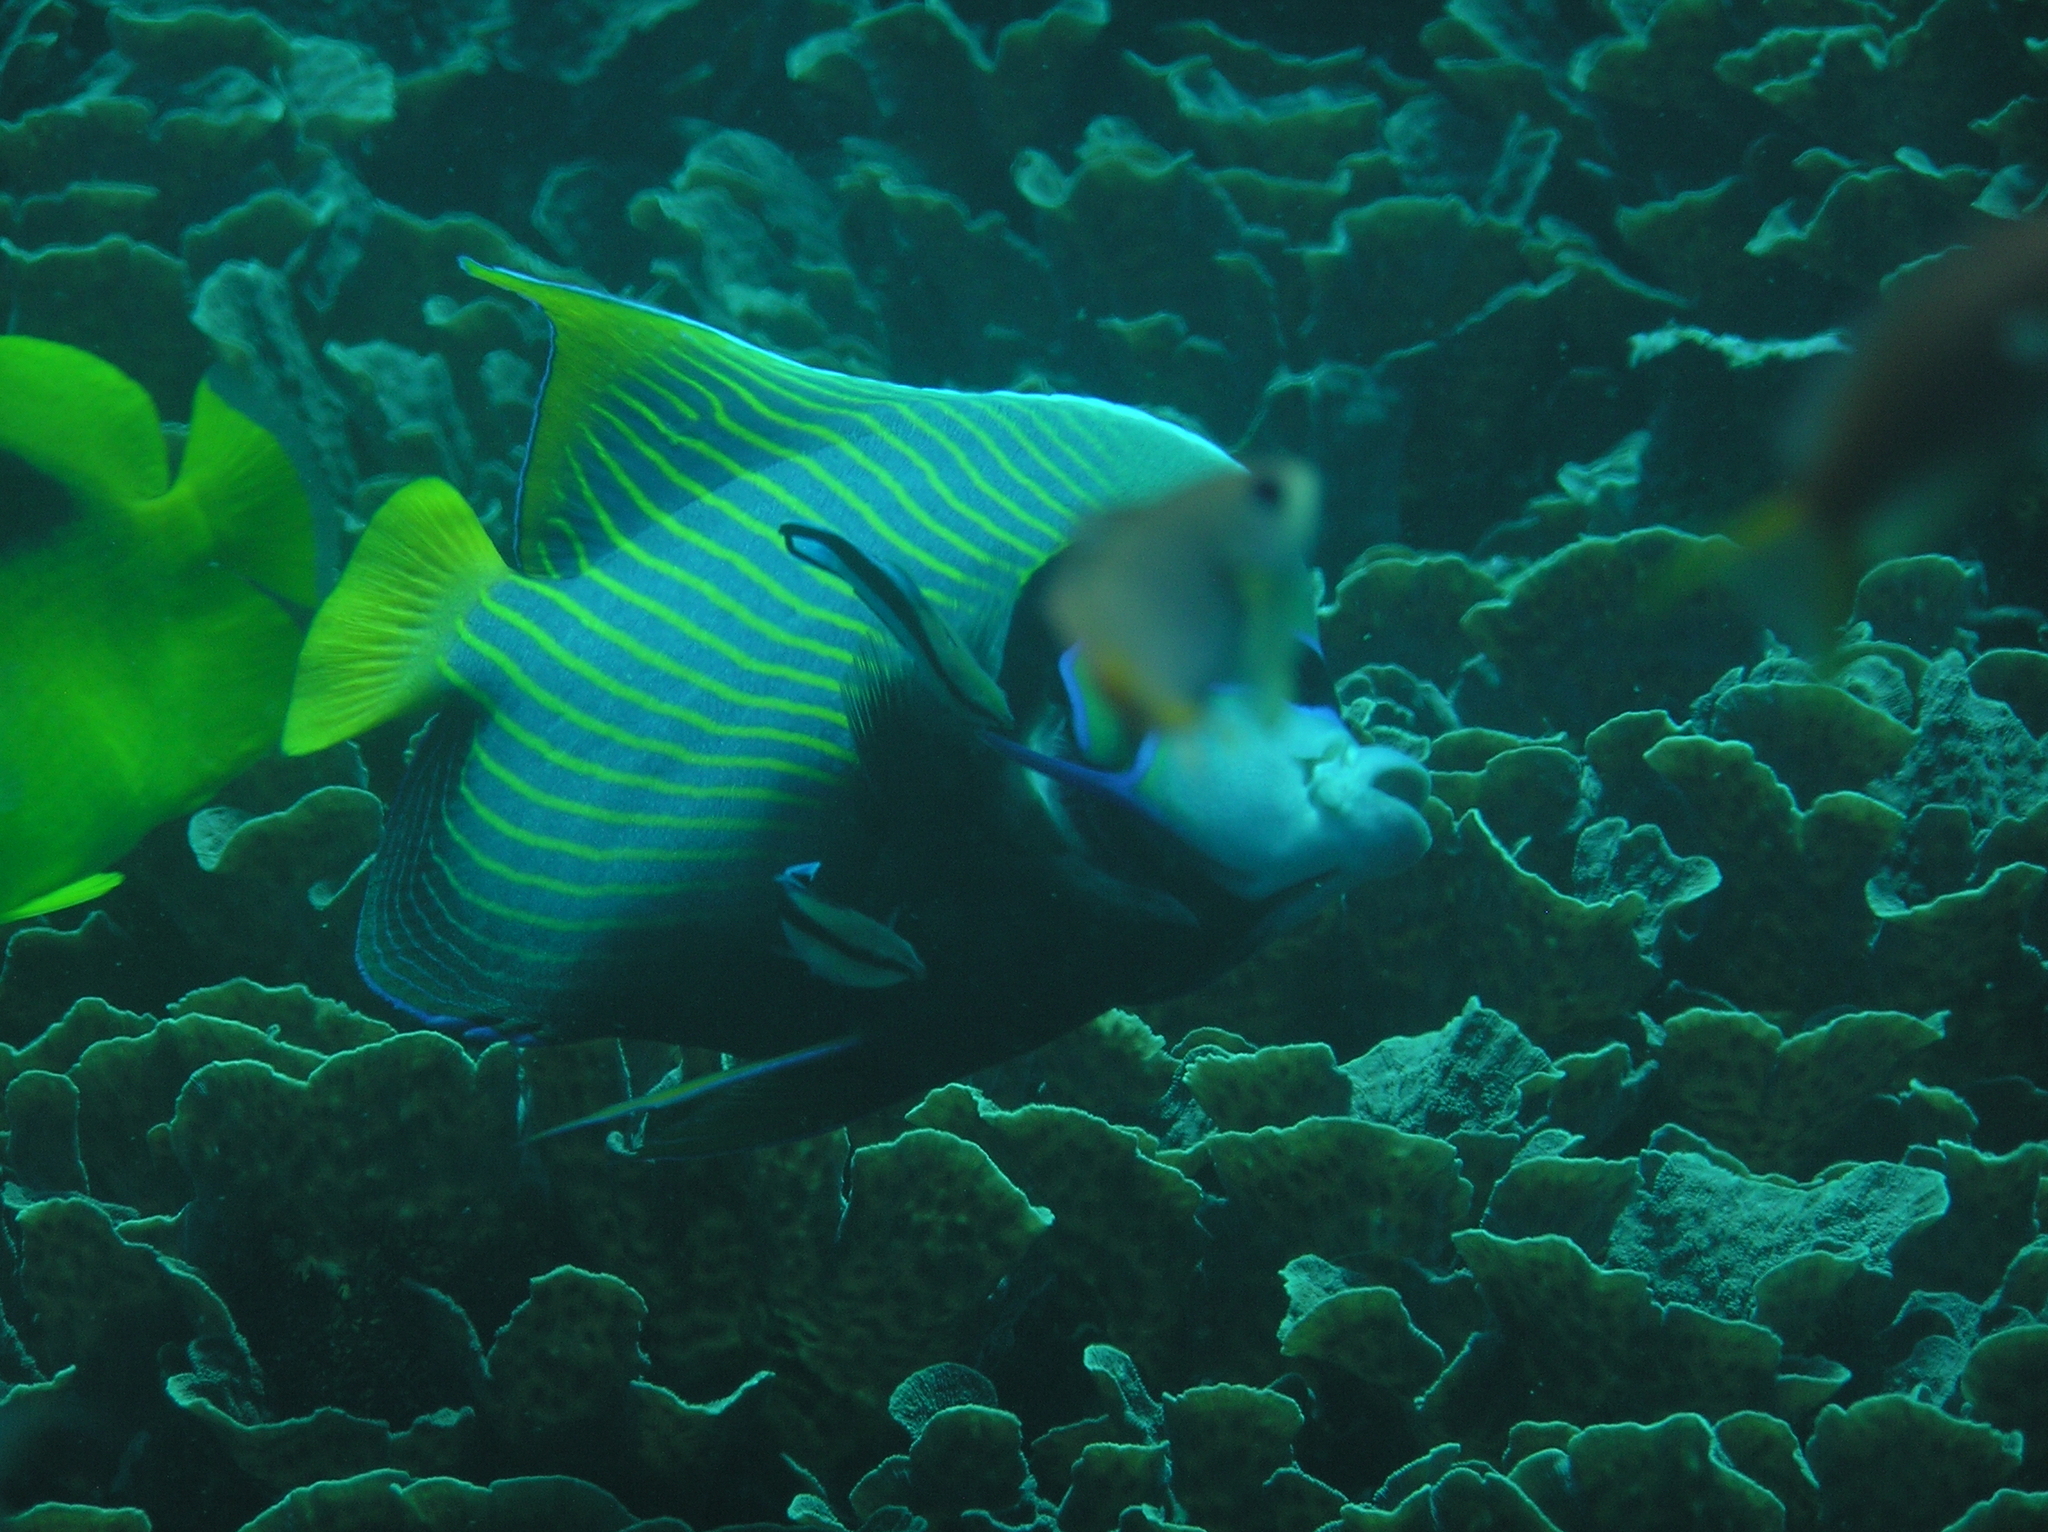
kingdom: Animalia
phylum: Chordata
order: Perciformes
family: Labridae
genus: Labroides
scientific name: Labroides dimidiatus
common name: Blue diesel wrasse
